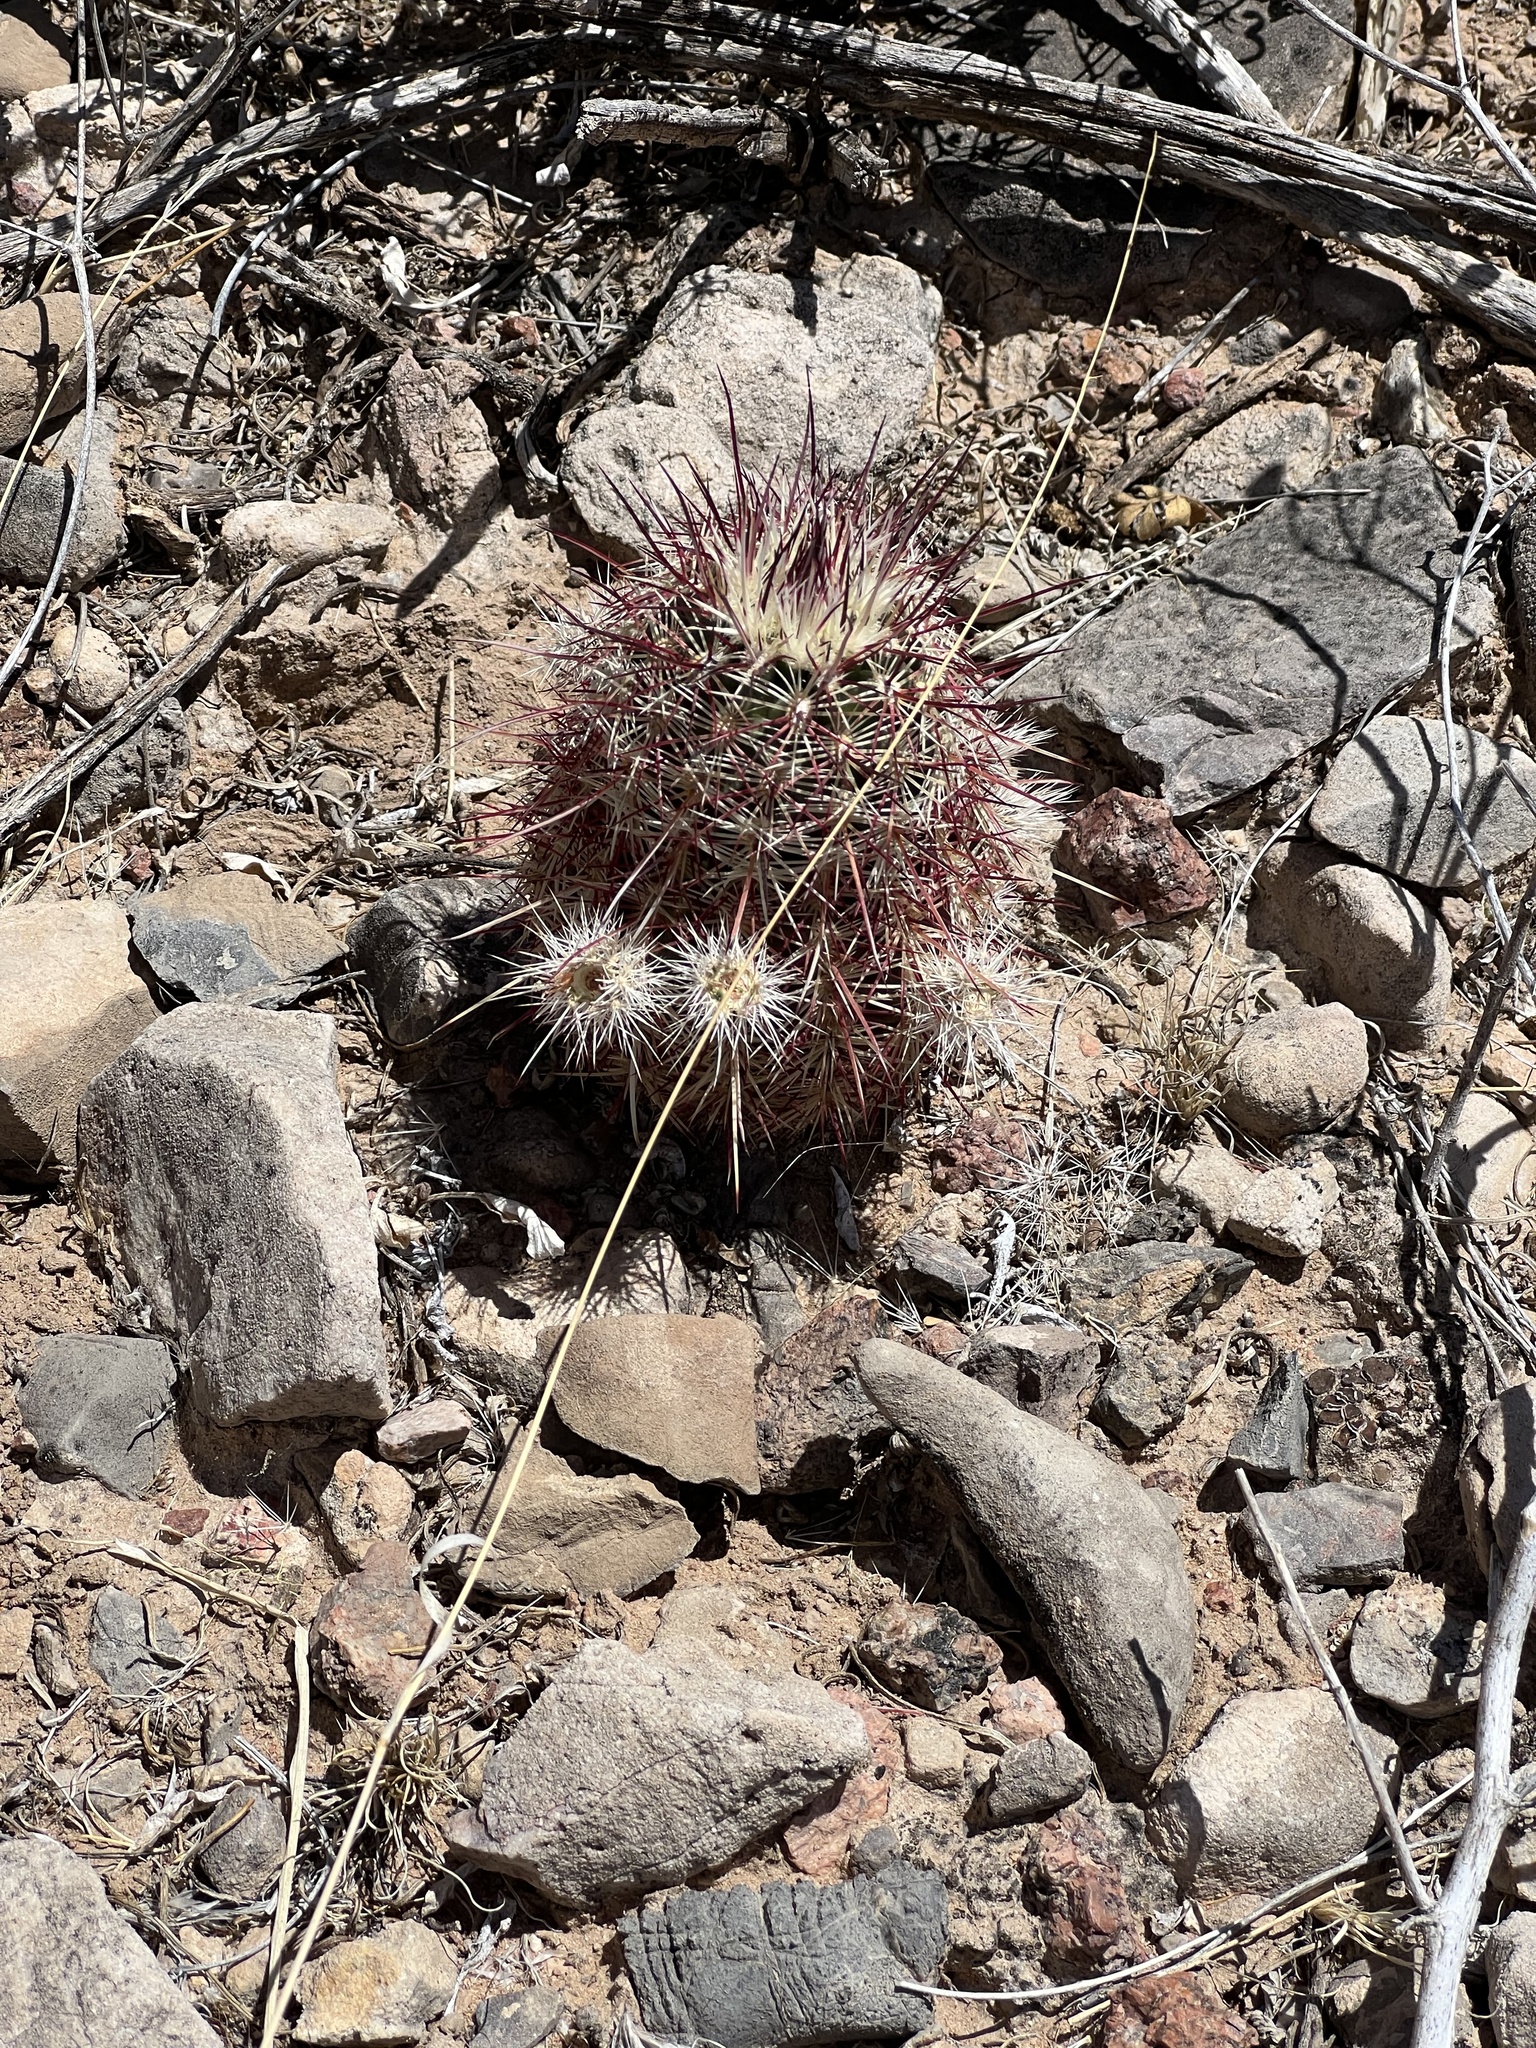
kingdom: Plantae
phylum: Tracheophyta
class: Magnoliopsida
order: Caryophyllales
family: Cactaceae
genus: Echinocereus
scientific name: Echinocereus viridiflorus
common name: Nylon hedgehog cactus
